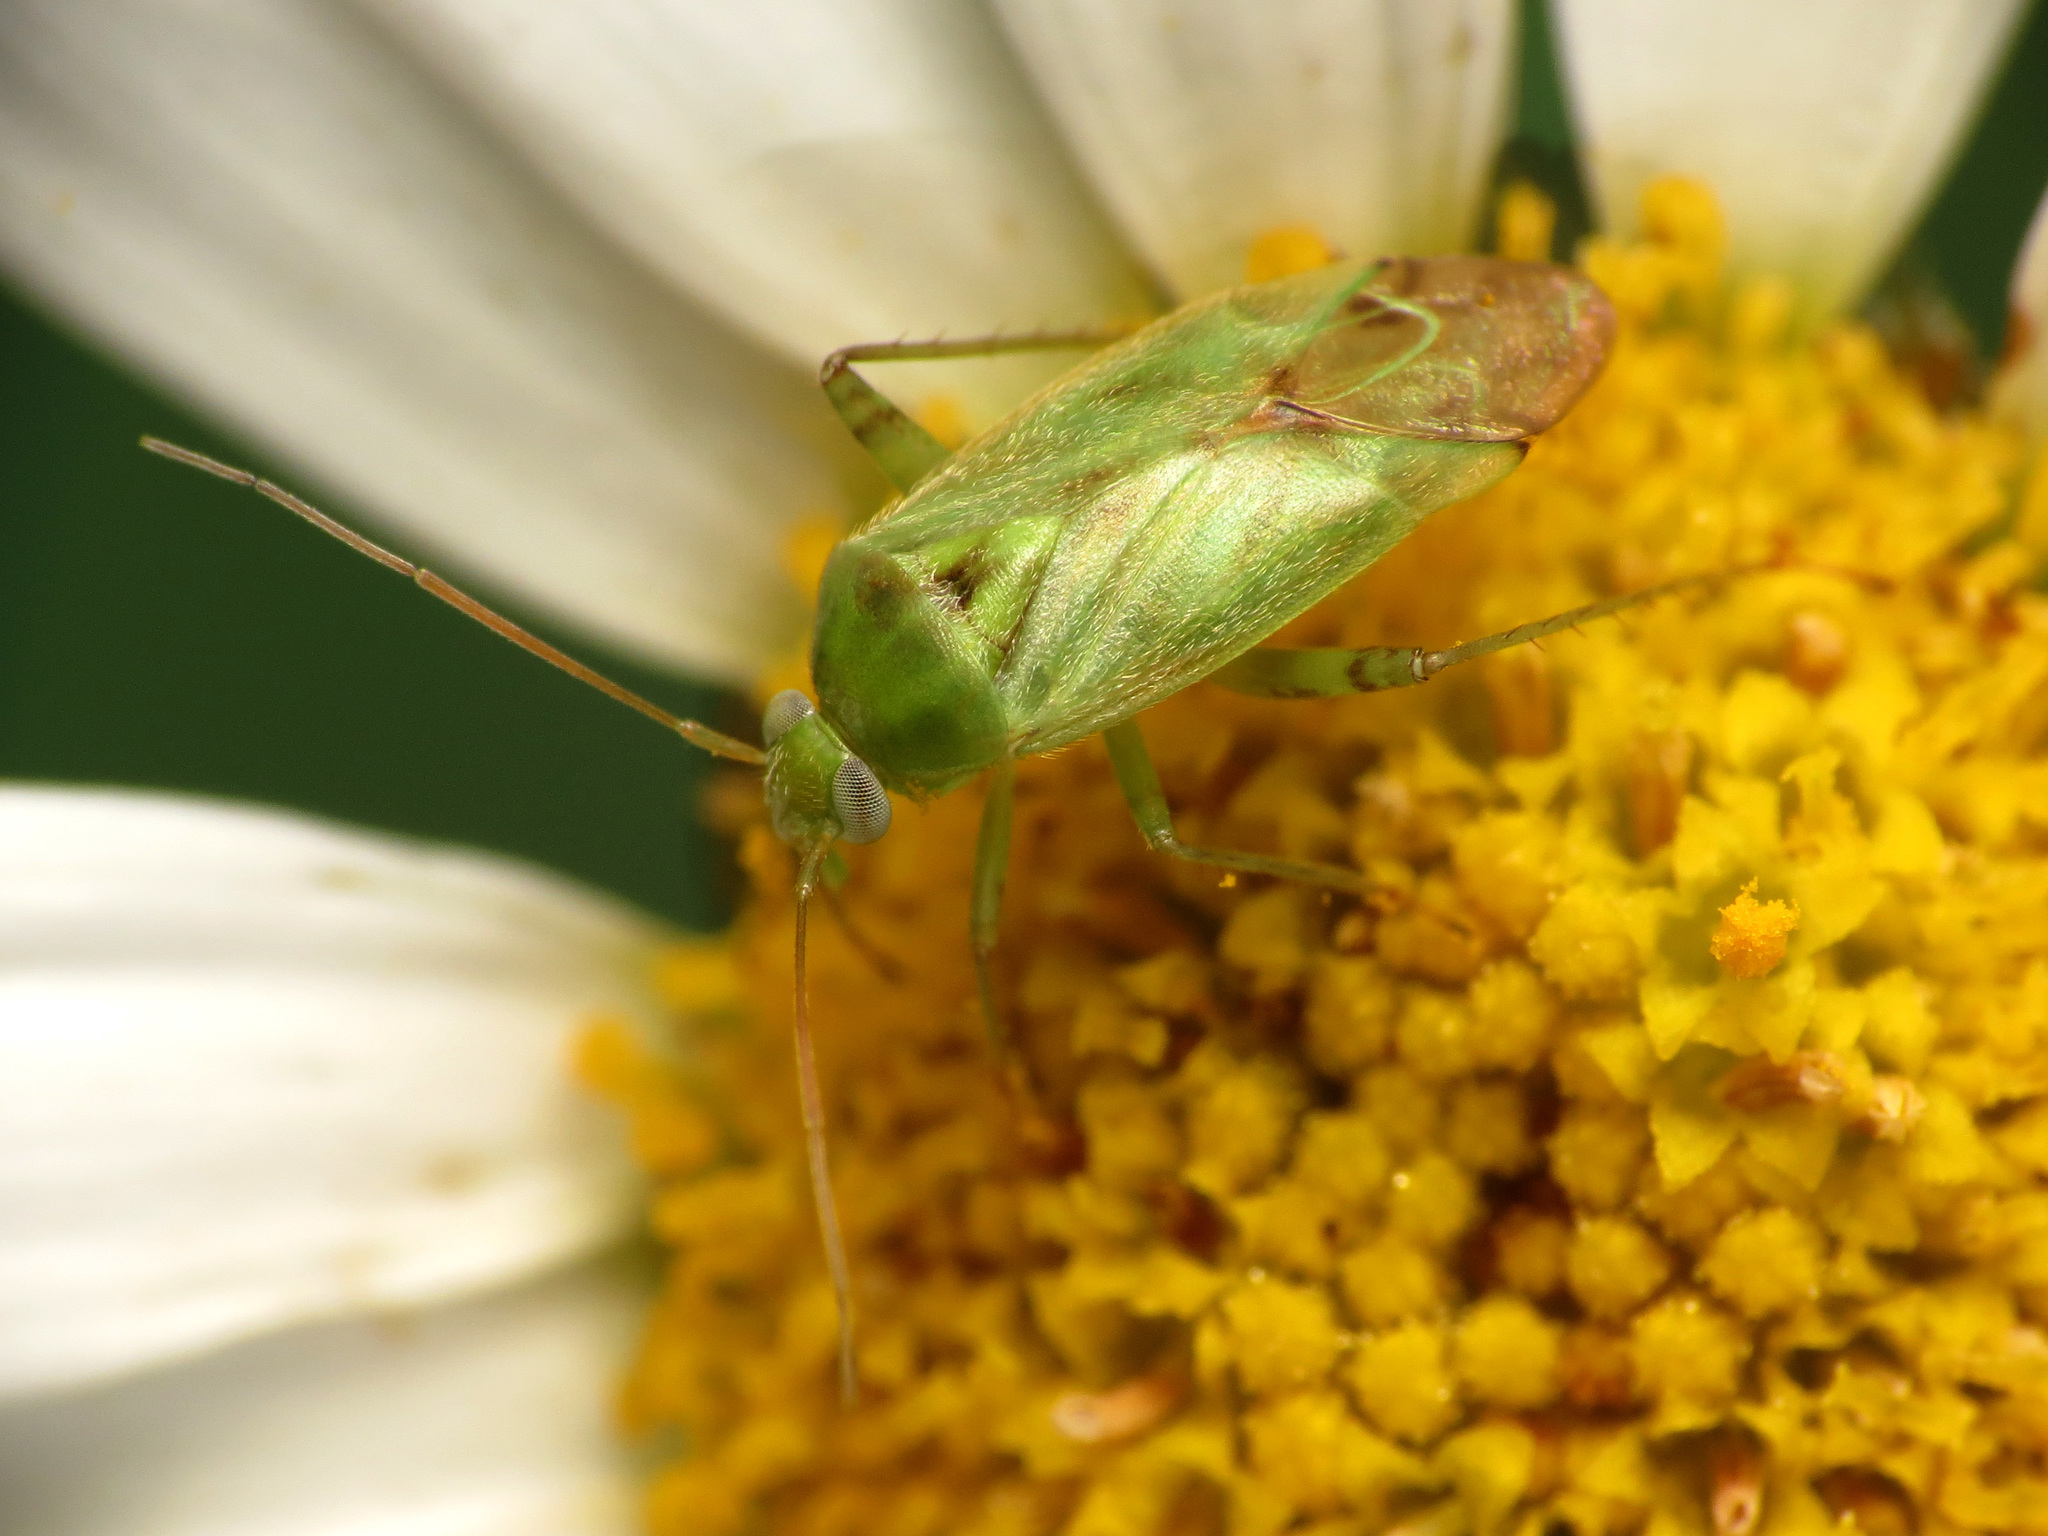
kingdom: Animalia
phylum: Arthropoda
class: Insecta
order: Hemiptera
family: Miridae
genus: Taylorilygus
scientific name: Taylorilygus apicalis
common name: Plant bug
